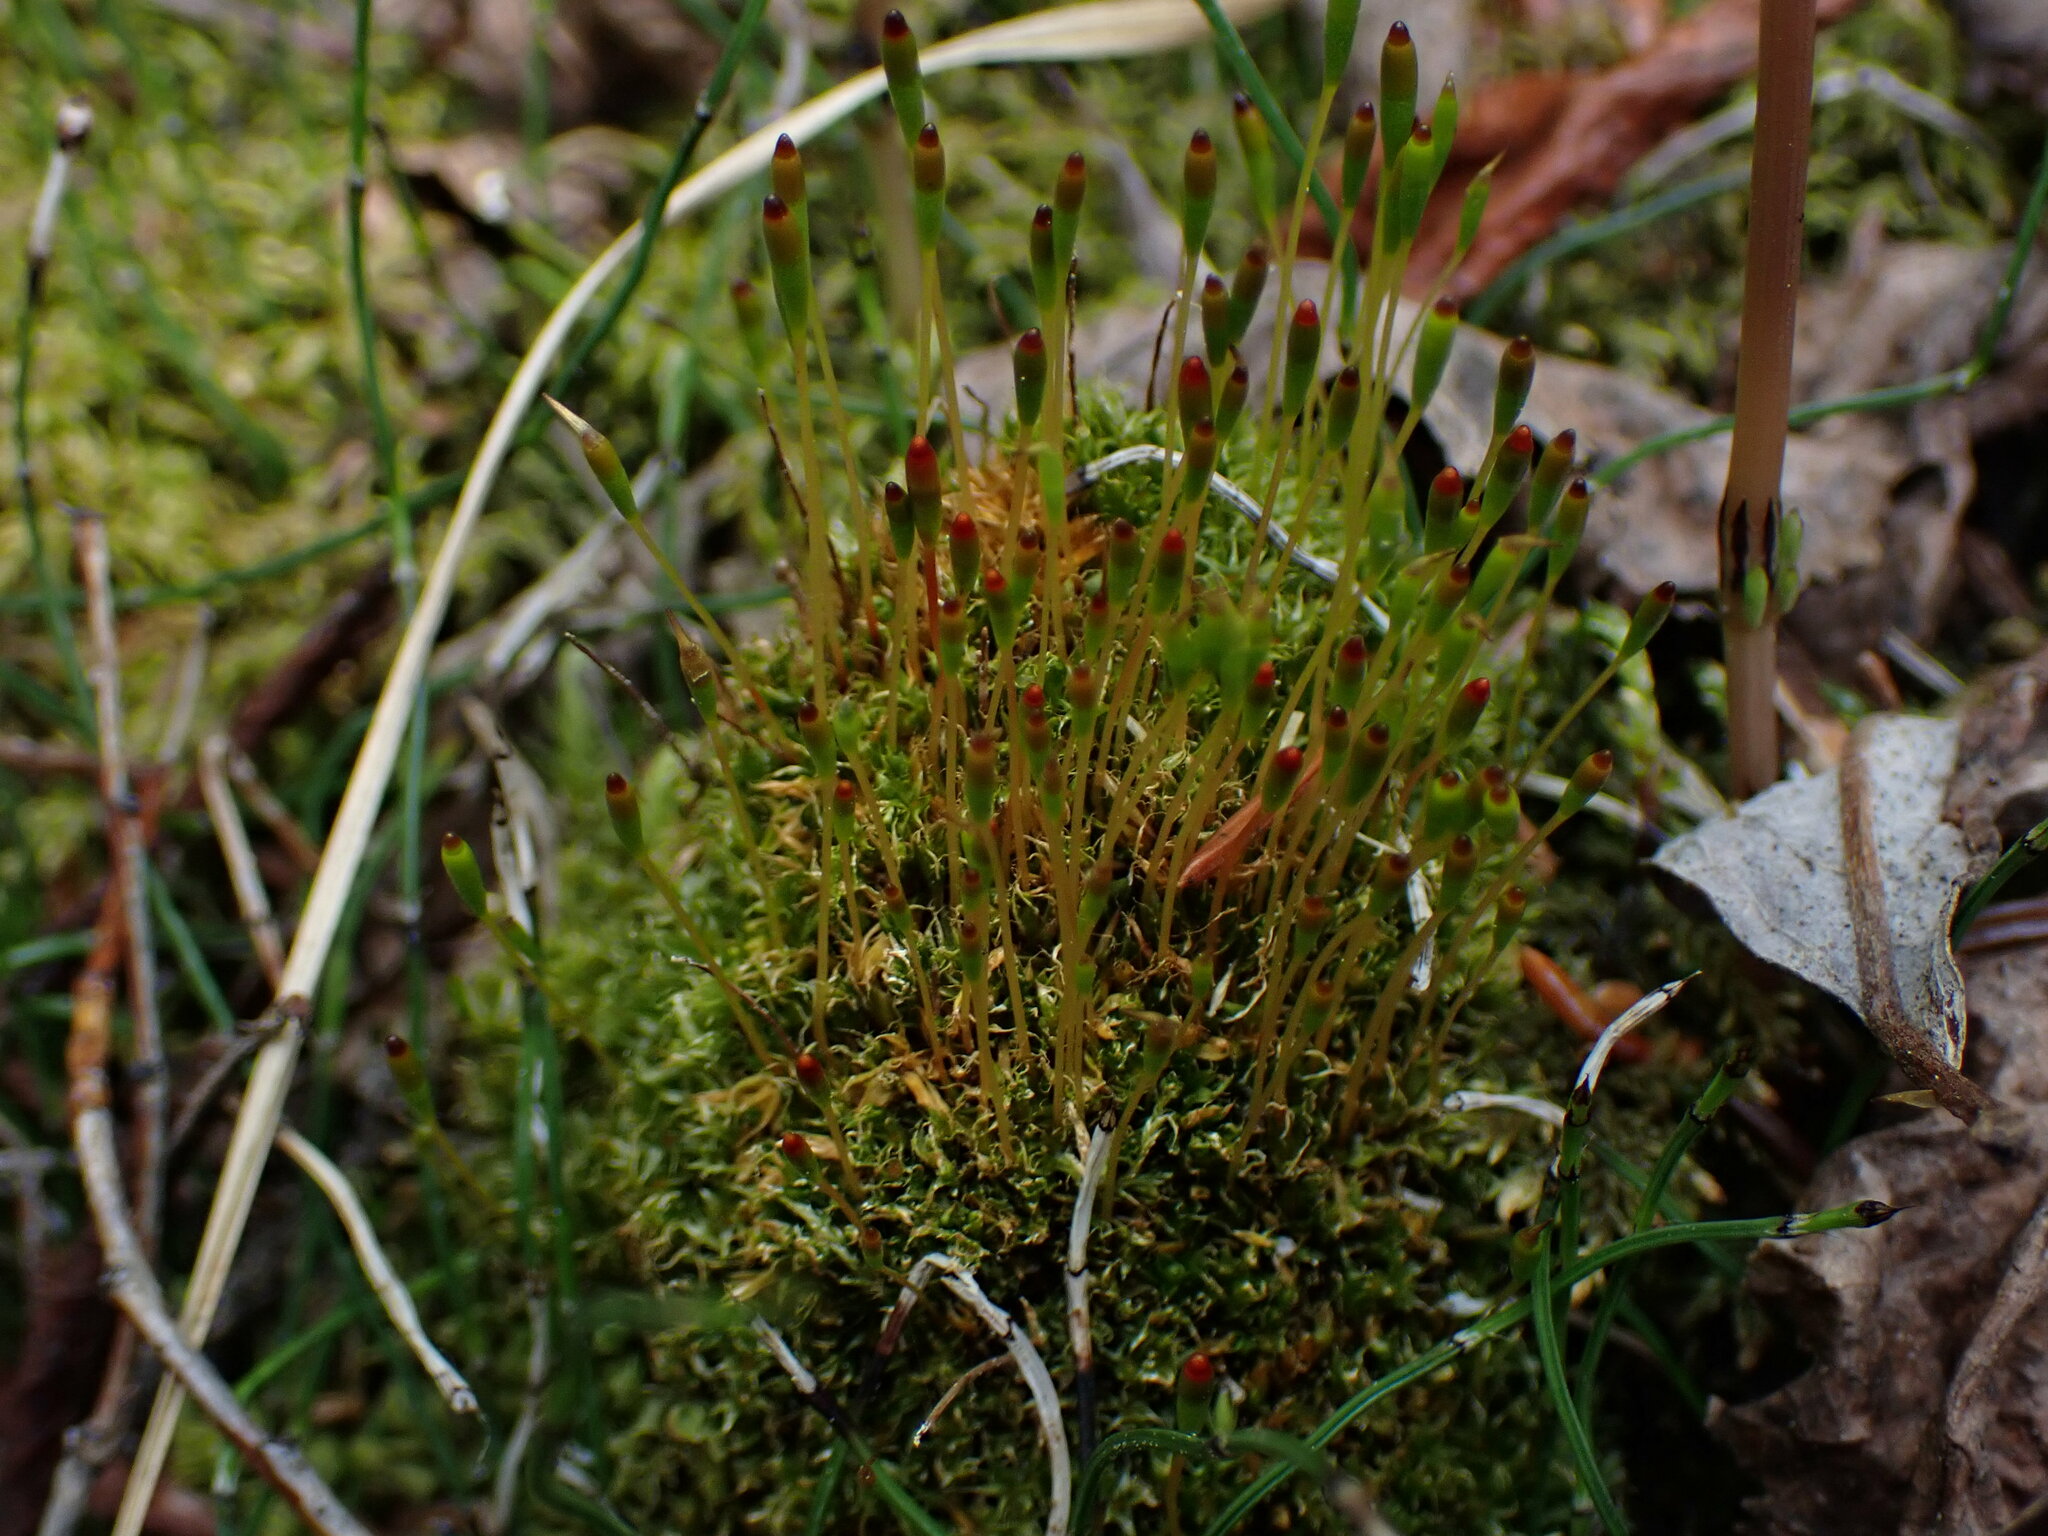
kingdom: Plantae
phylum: Bryophyta
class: Bryopsida
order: Splachnales
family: Splachnaceae
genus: Tetraplodon
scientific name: Tetraplodon mnioides
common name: Entire-leaved nitrogen moss
